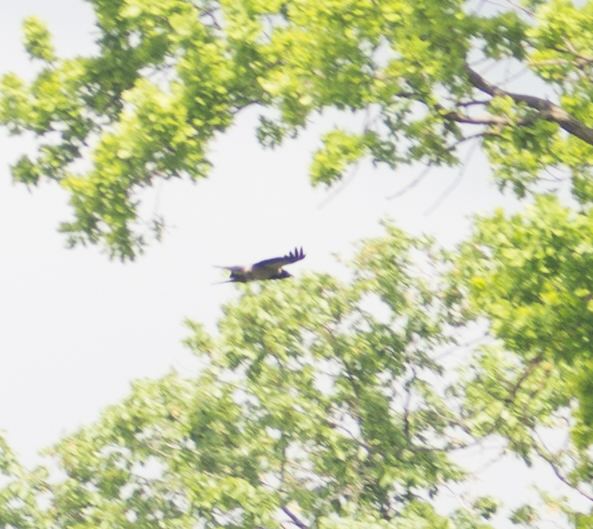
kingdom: Animalia
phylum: Chordata
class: Aves
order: Passeriformes
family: Corvidae
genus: Corvus
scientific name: Corvus cornix
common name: Hooded crow
